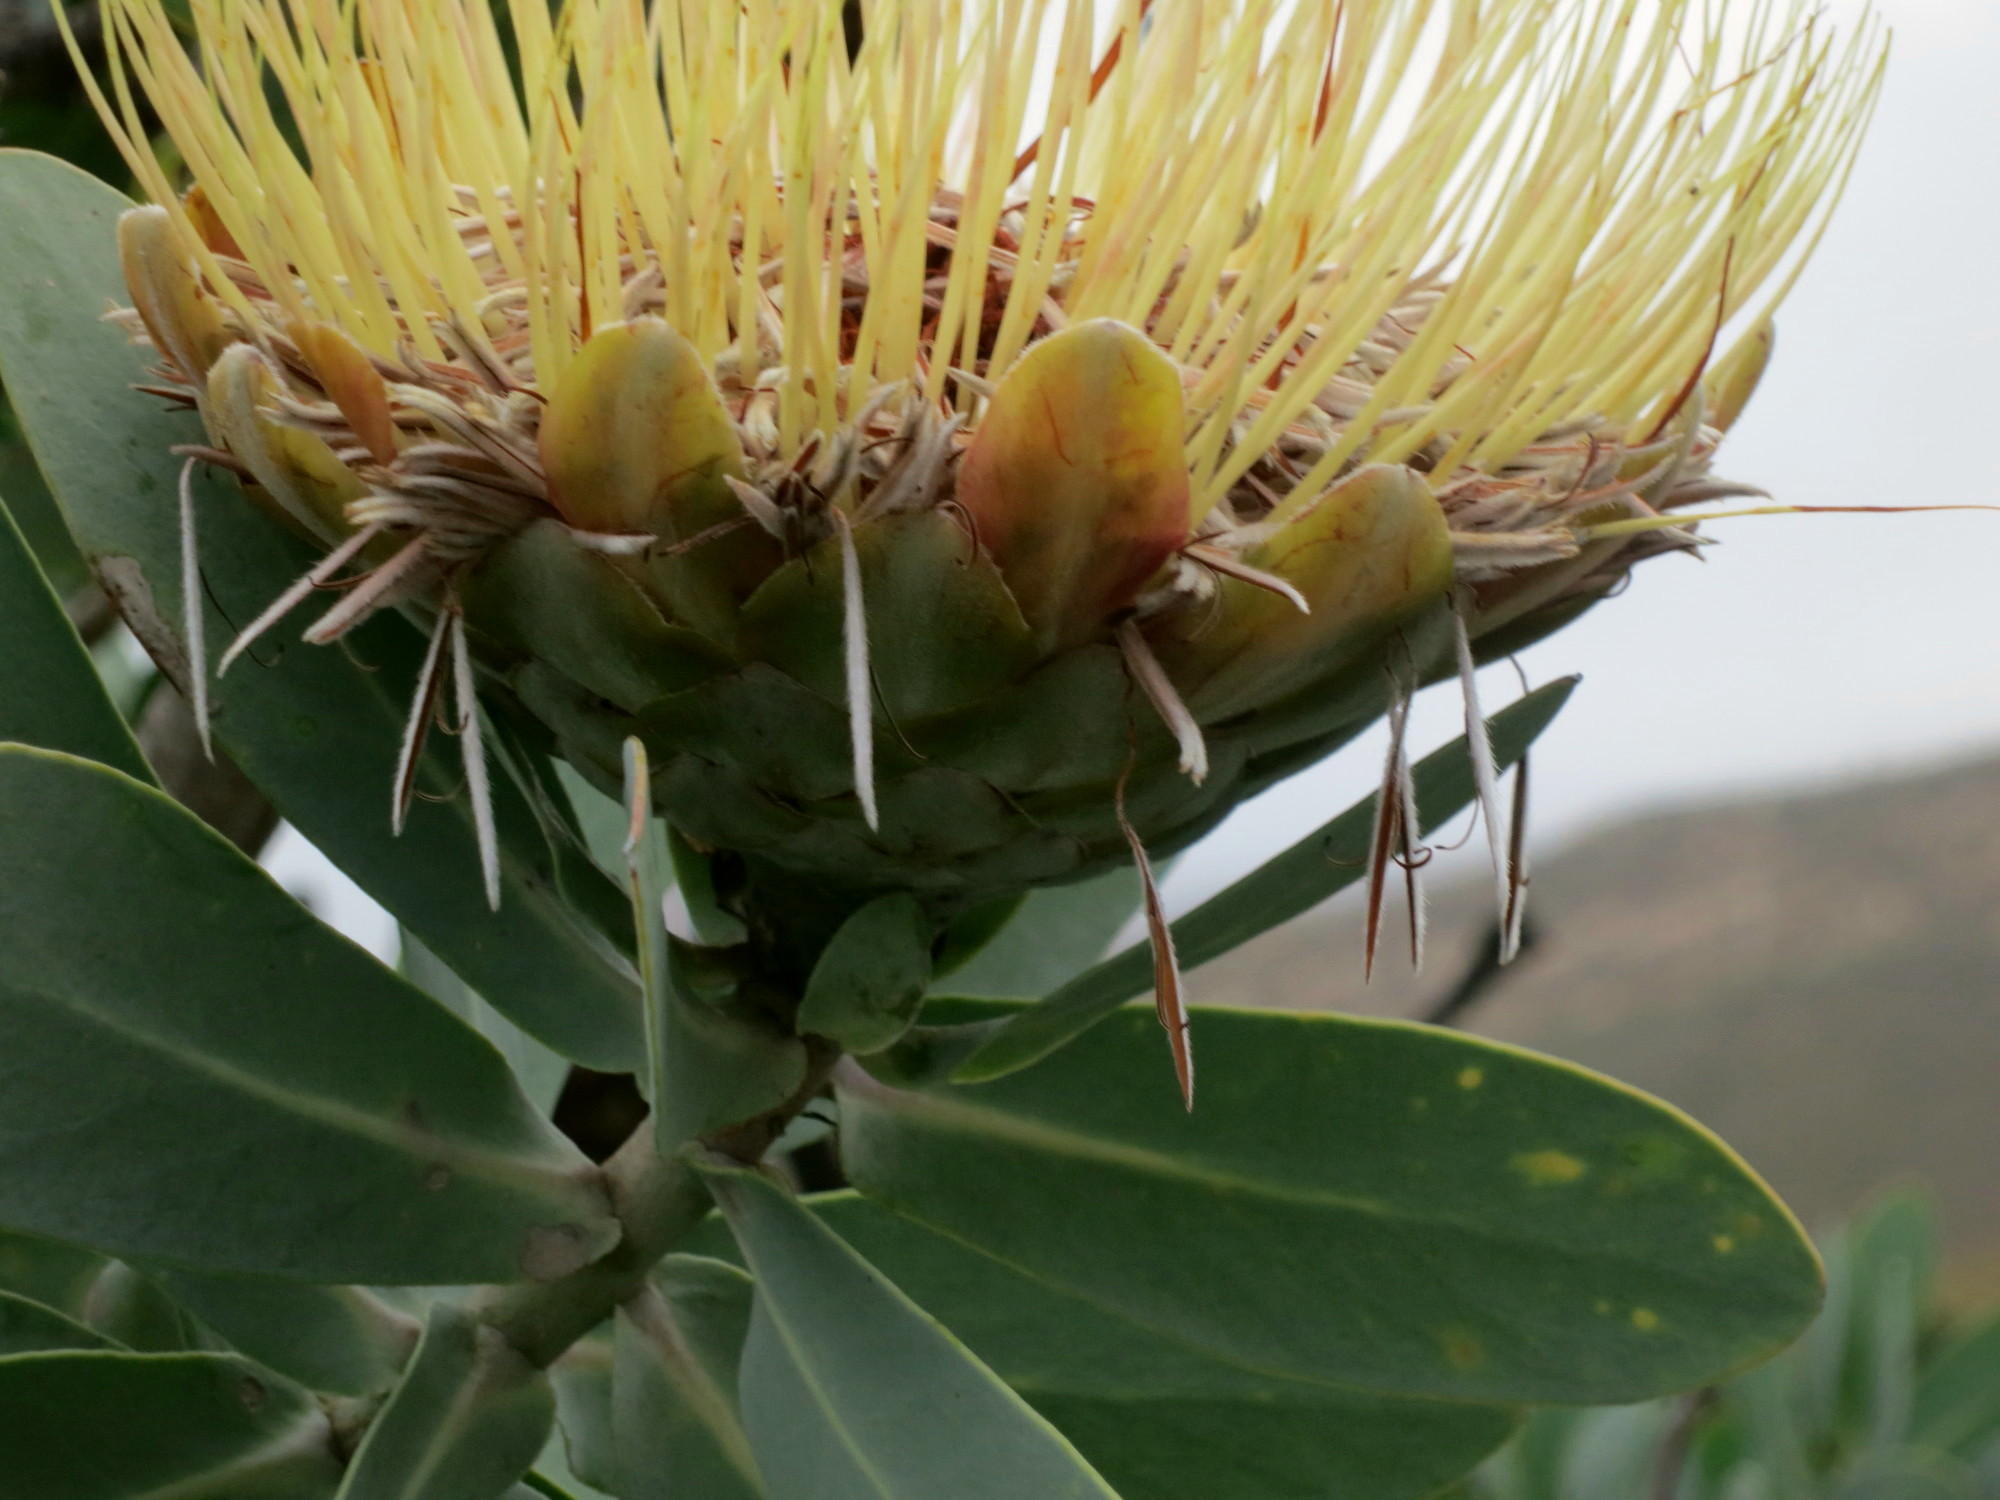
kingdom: Plantae
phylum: Tracheophyta
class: Magnoliopsida
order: Proteales
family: Proteaceae
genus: Protea
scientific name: Protea nitida
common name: Tree protea
